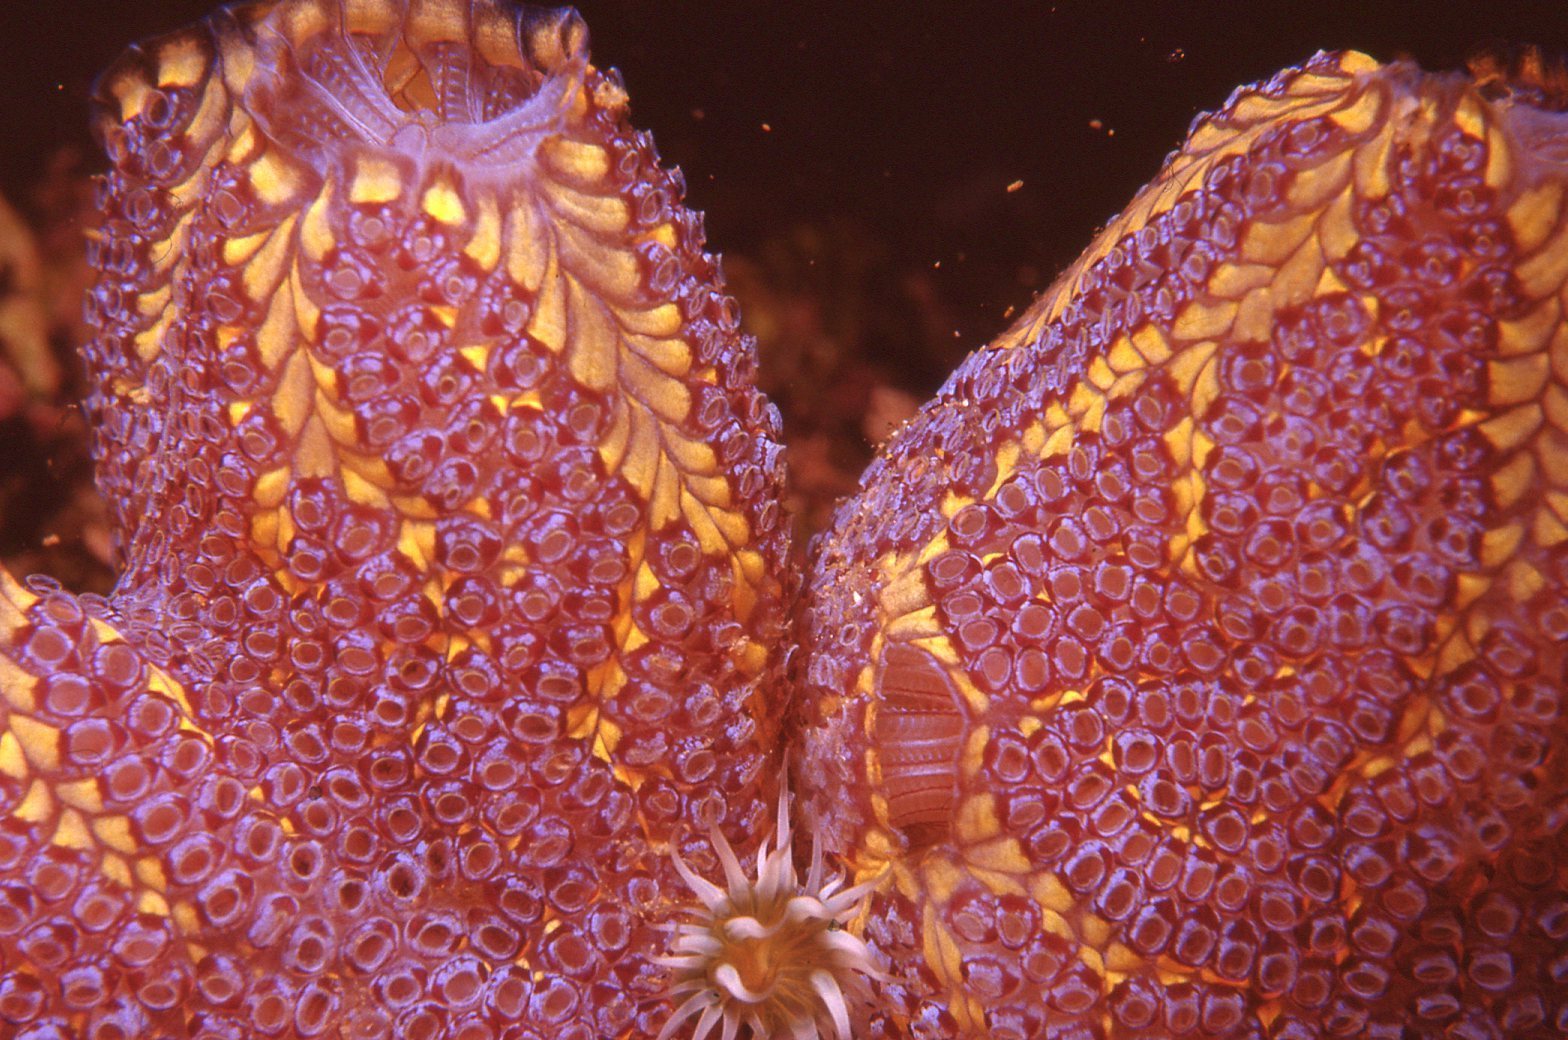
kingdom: Animalia
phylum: Chordata
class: Ascidiacea
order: Stolidobranchia
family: Styelidae
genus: Botrylloides
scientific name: Botrylloides magnicoecus
